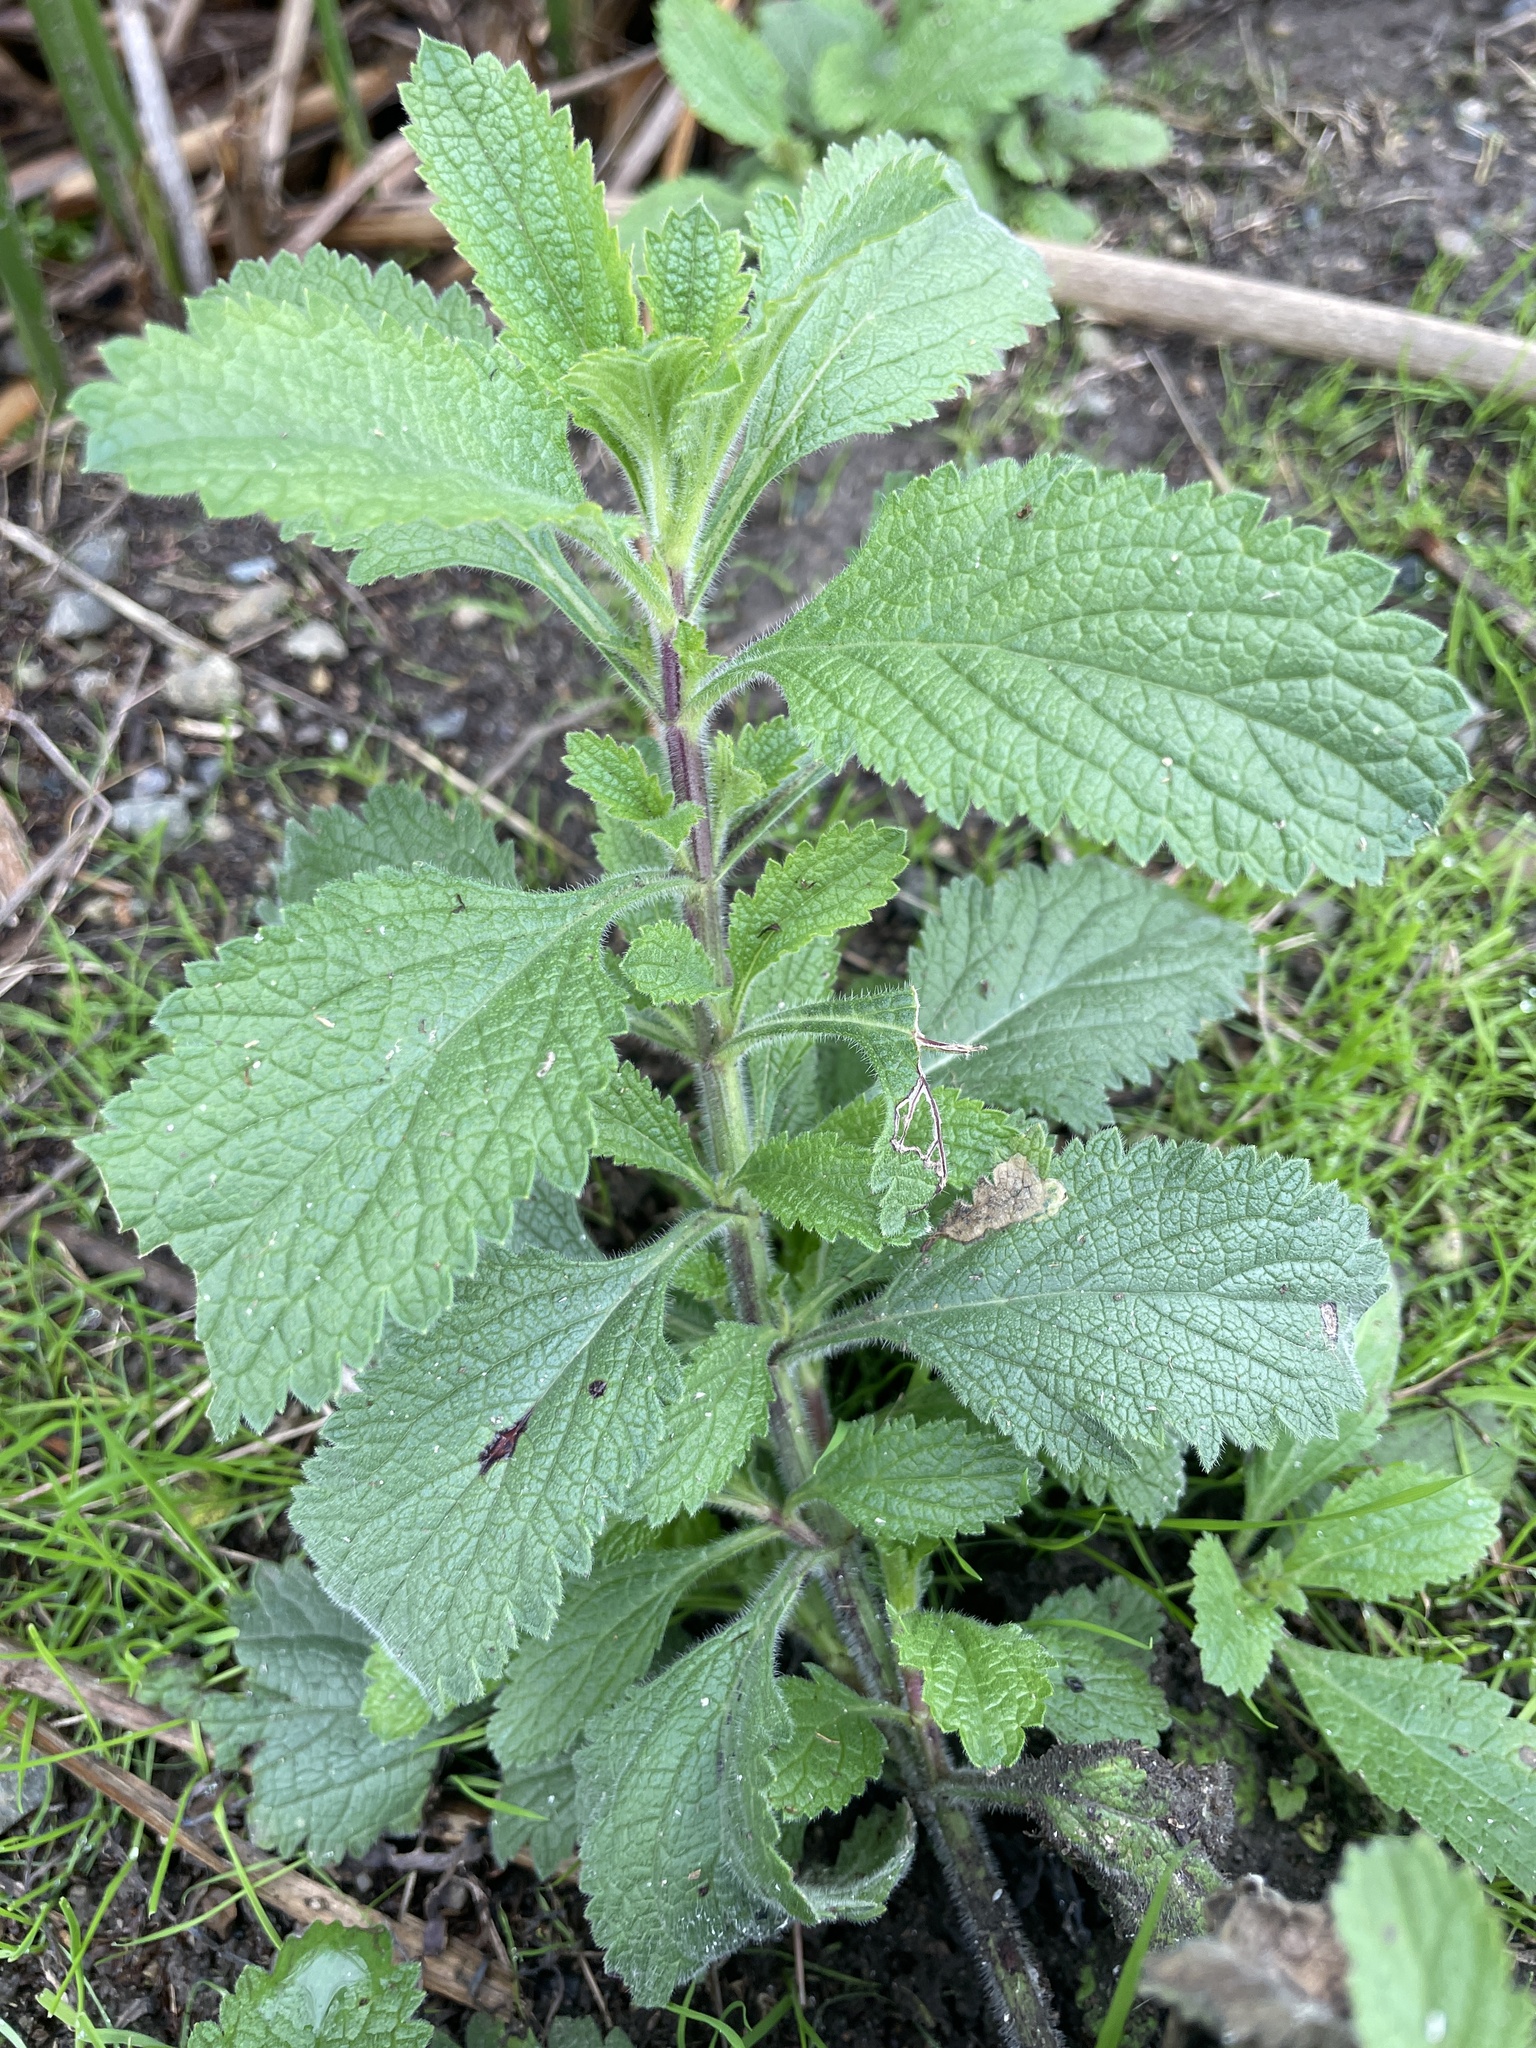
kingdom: Plantae
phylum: Tracheophyta
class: Magnoliopsida
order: Lamiales
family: Verbenaceae
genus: Verbena
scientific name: Verbena lasiostachys
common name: Vervain
